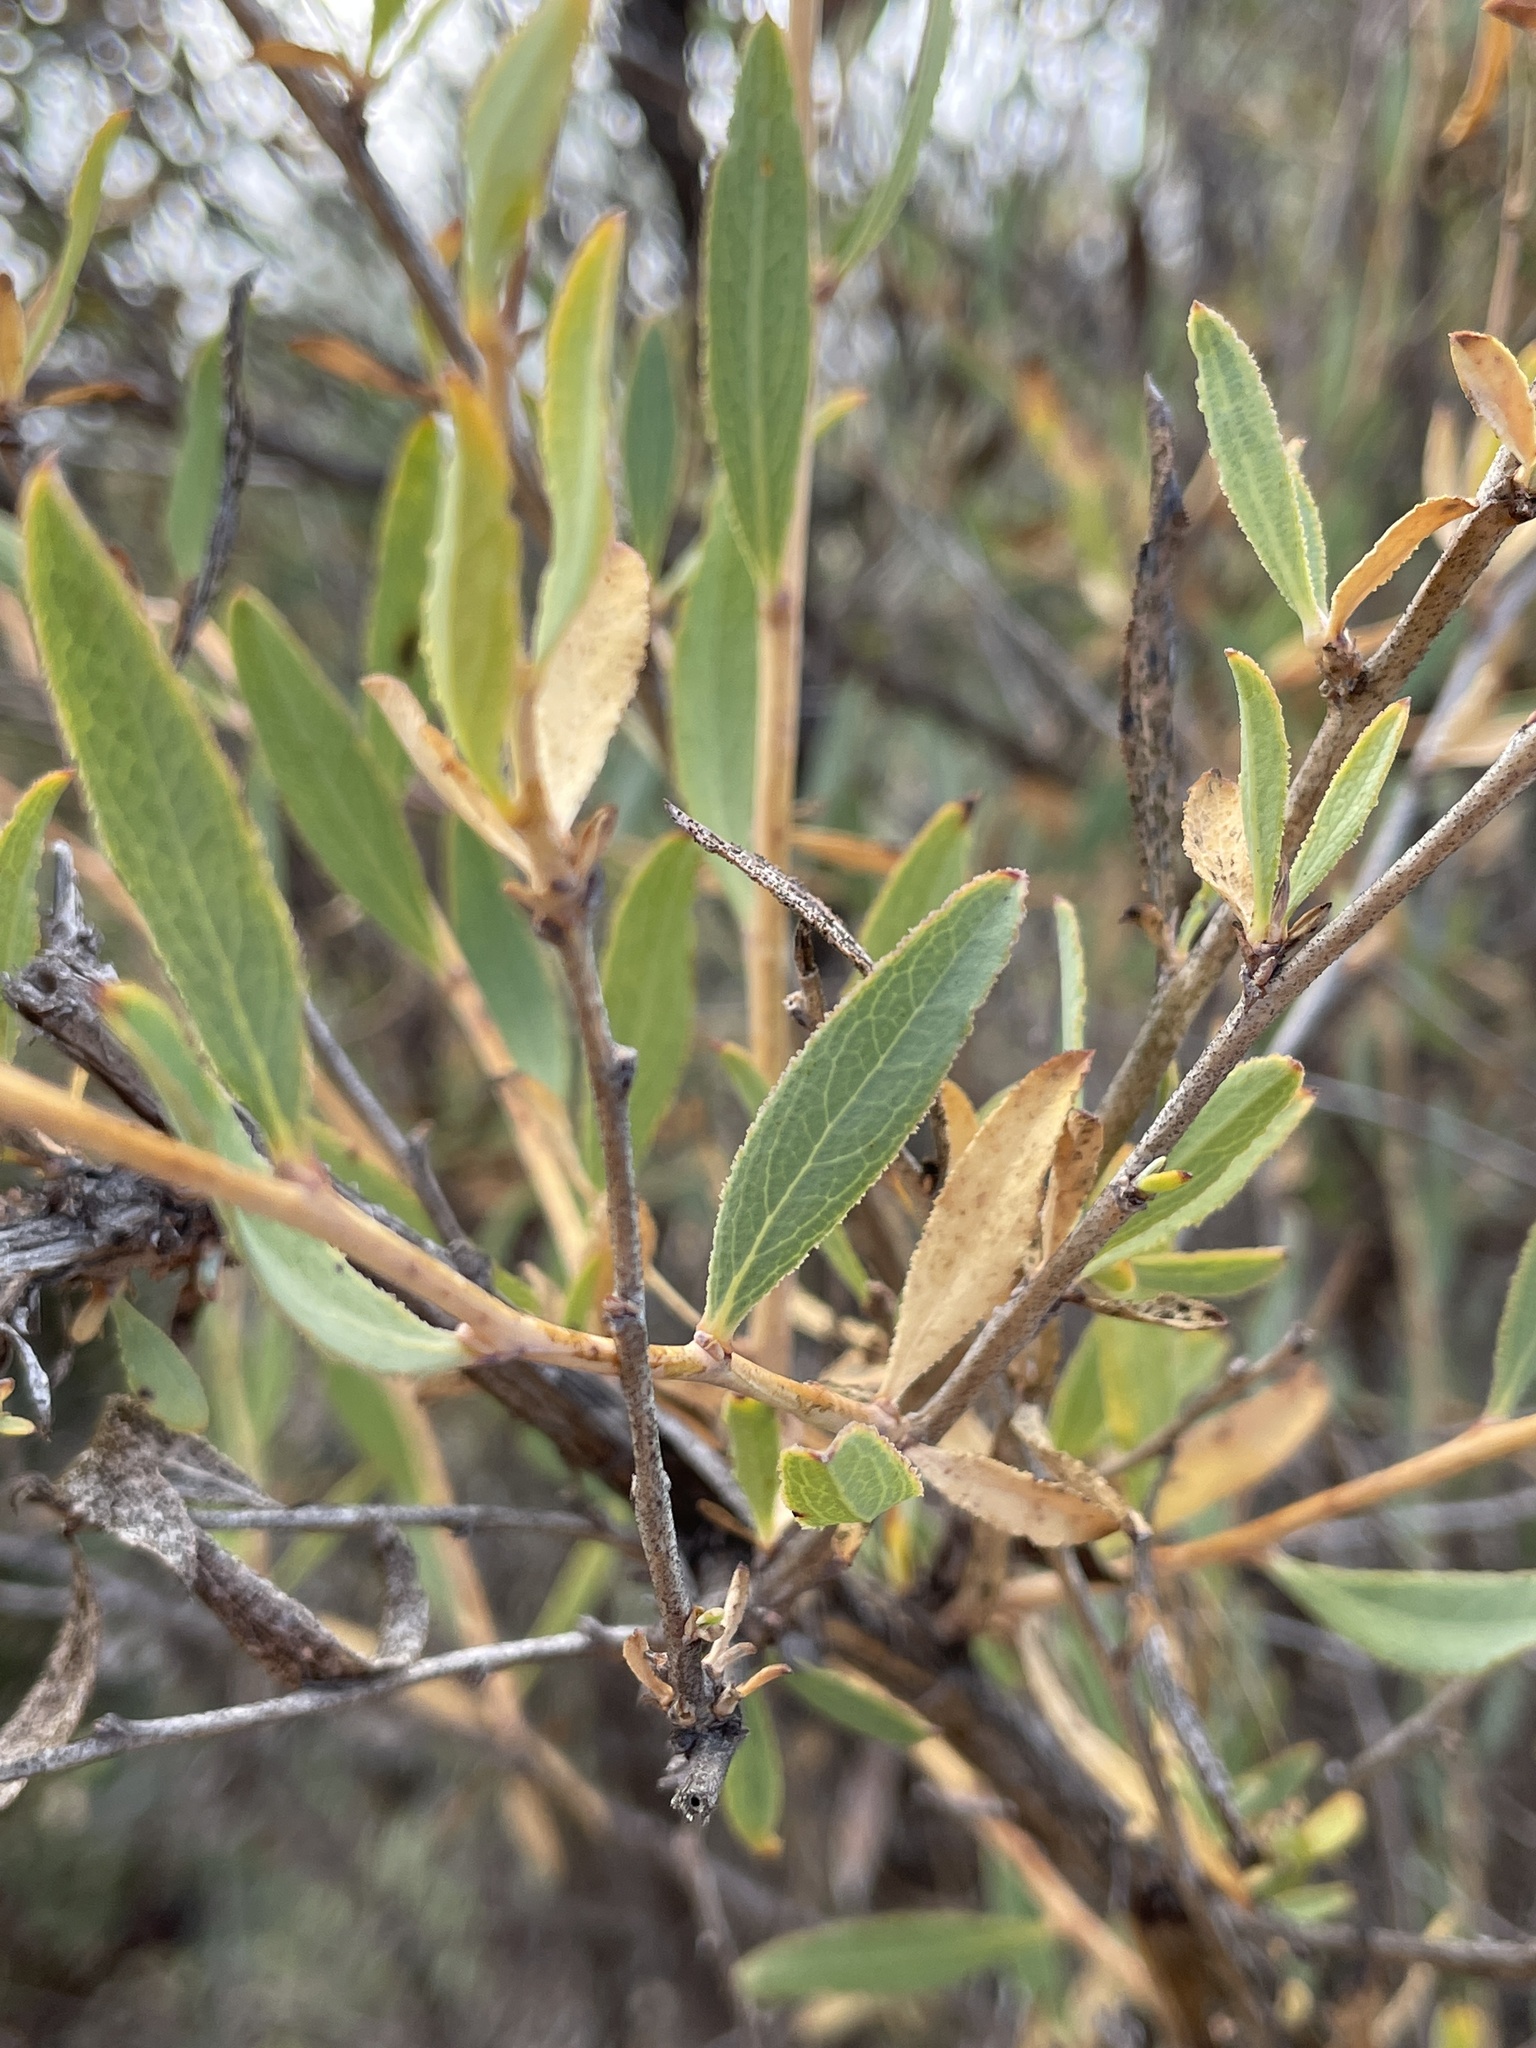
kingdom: Plantae
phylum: Tracheophyta
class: Magnoliopsida
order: Ranunculales
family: Papaveraceae
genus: Dendromecon
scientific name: Dendromecon rigida
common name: Tree poppy
